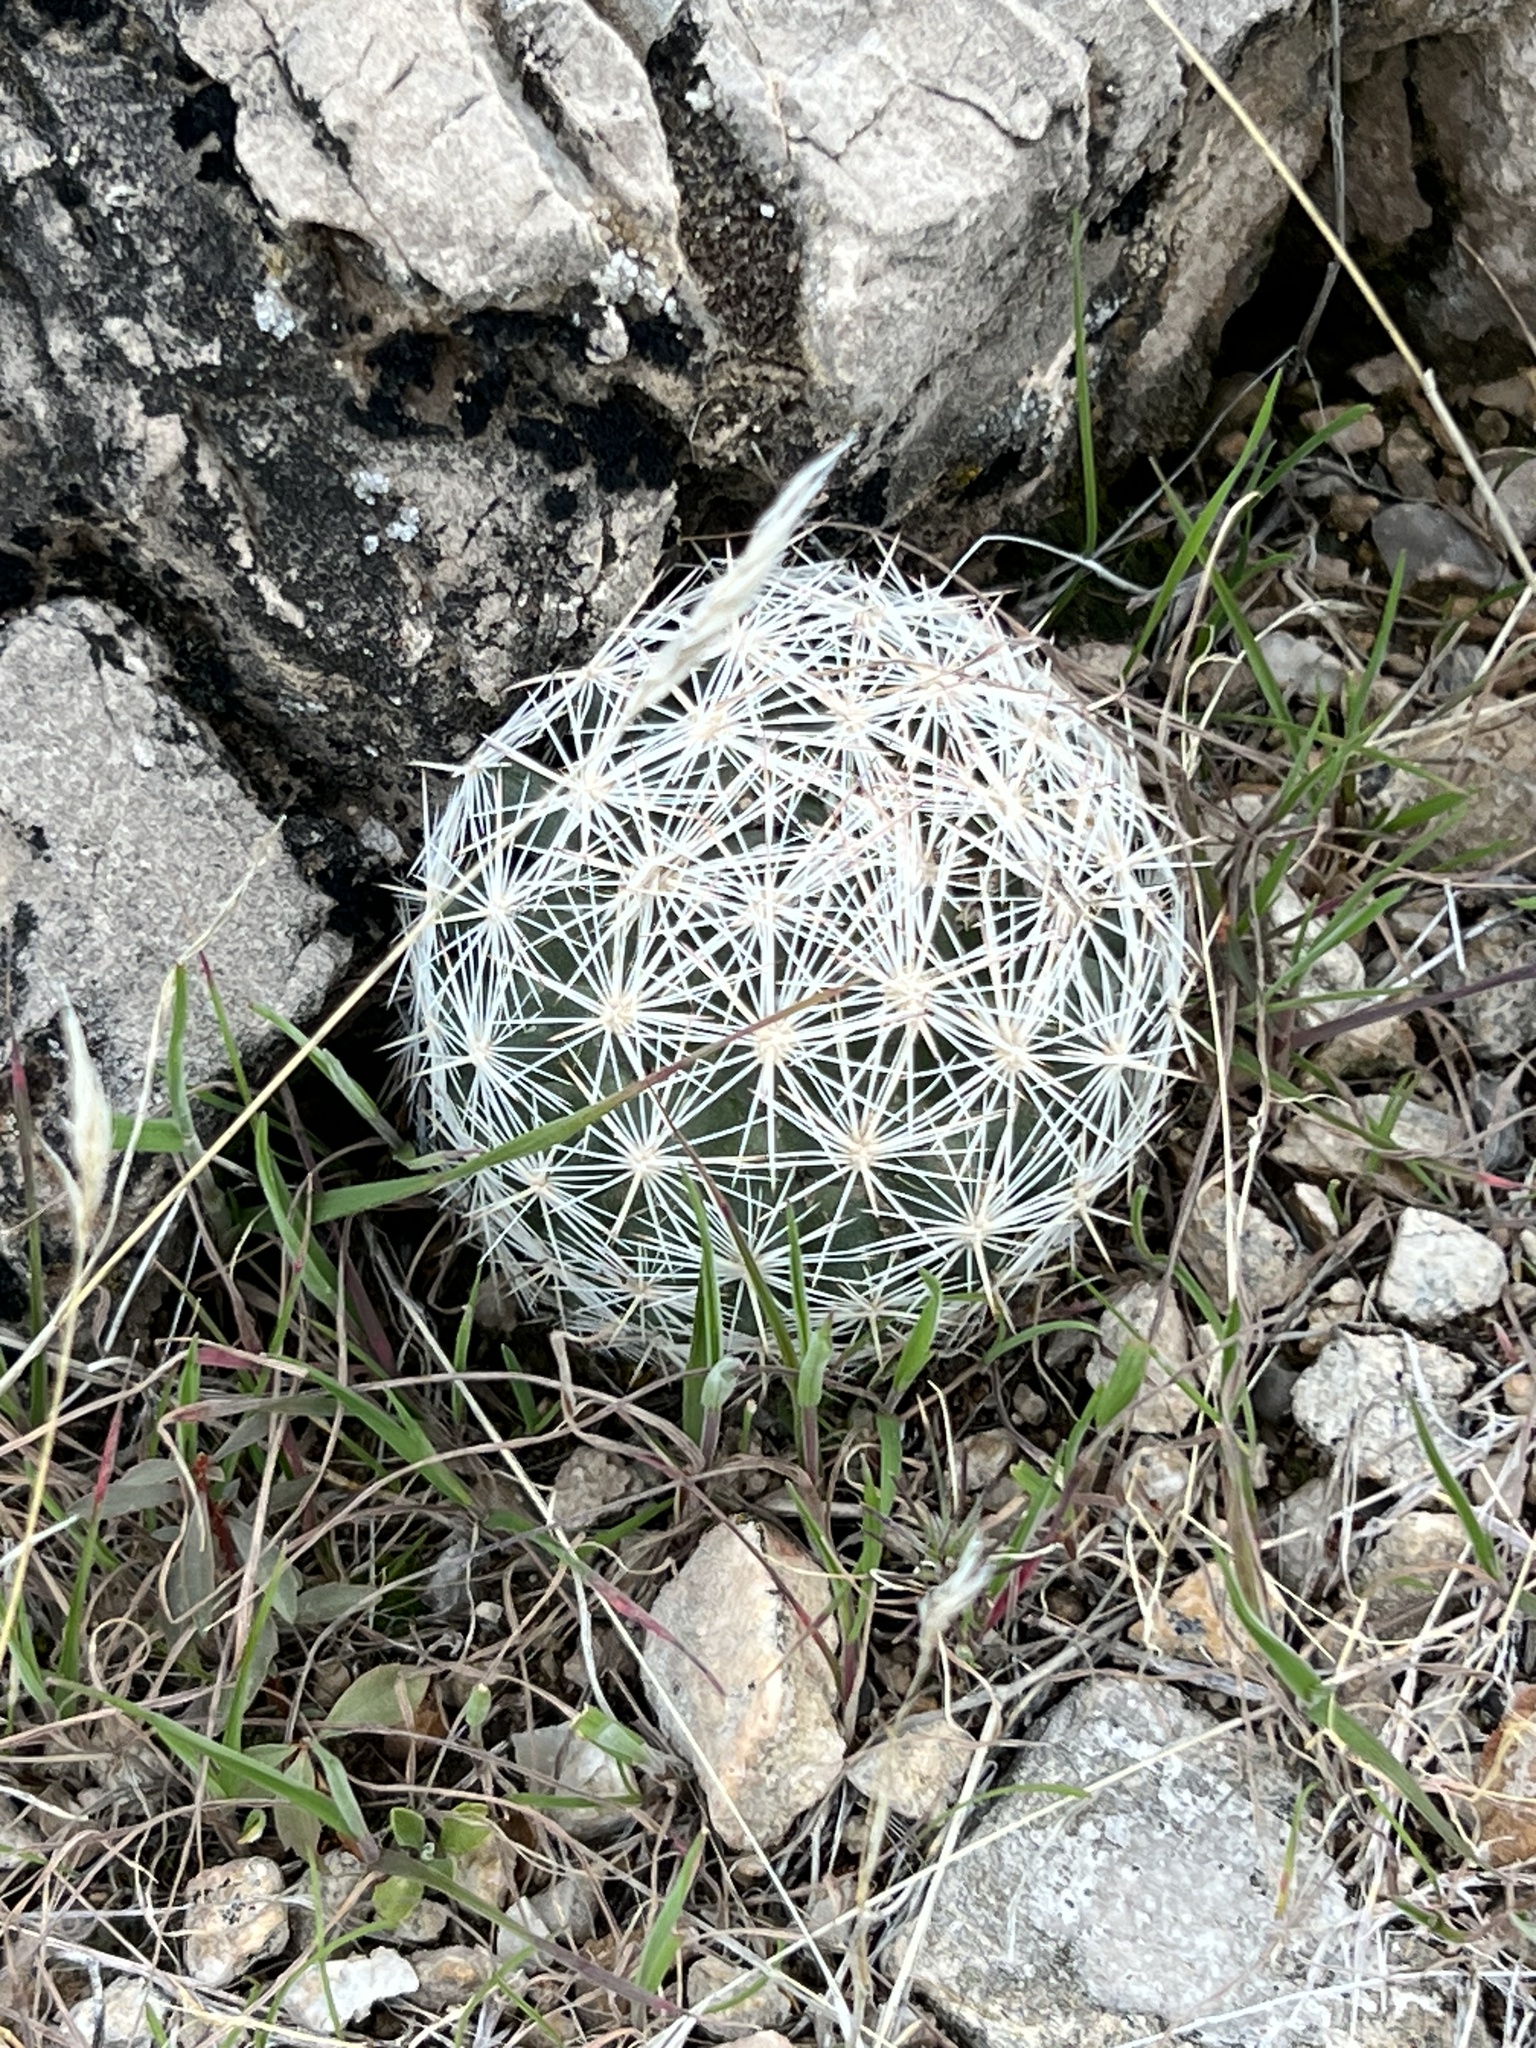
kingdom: Plantae
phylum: Tracheophyta
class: Magnoliopsida
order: Caryophyllales
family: Cactaceae
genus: Pelecyphora
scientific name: Pelecyphora dasyacantha
